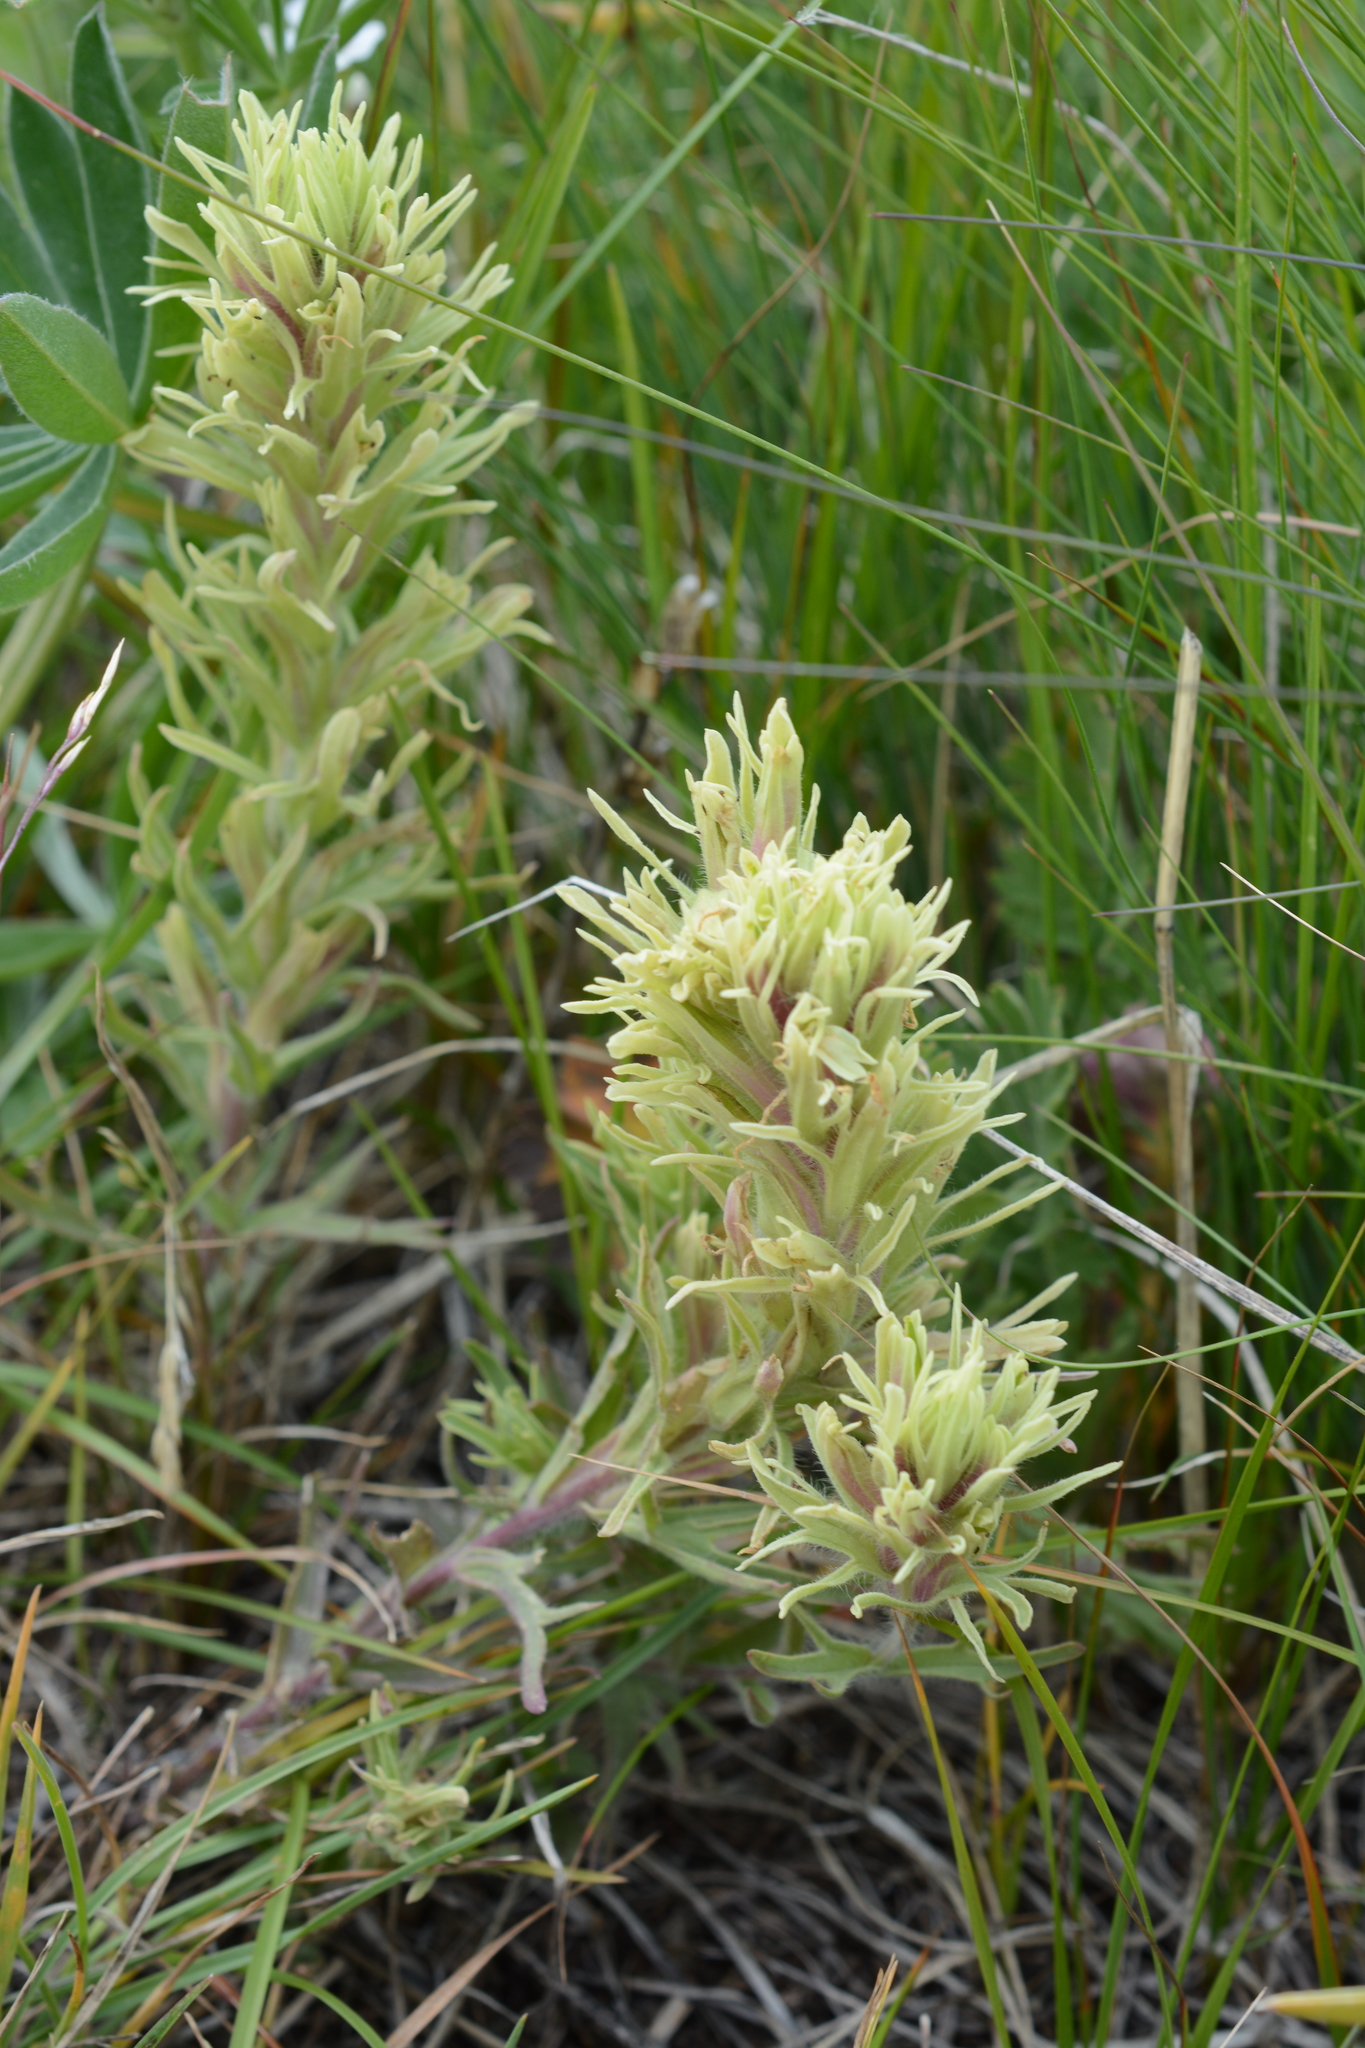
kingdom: Plantae
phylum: Tracheophyta
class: Magnoliopsida
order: Lamiales
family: Orobanchaceae
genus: Castilleja
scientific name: Castilleja cervina
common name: Deer paintbrush
